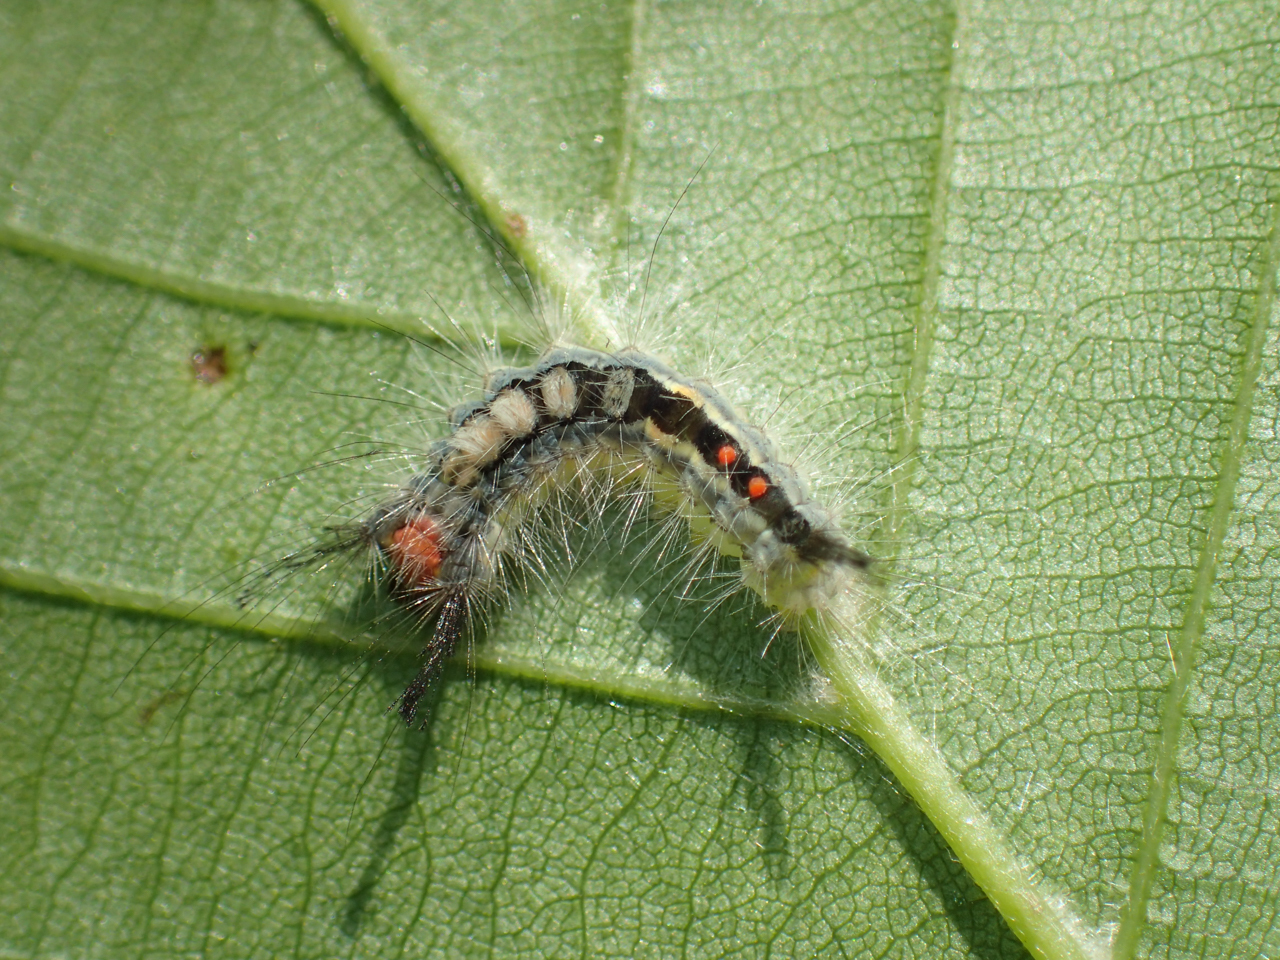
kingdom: Animalia
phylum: Arthropoda
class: Insecta
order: Lepidoptera
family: Erebidae
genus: Orgyia
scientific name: Orgyia leucostigma
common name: White-marked tussock moth
